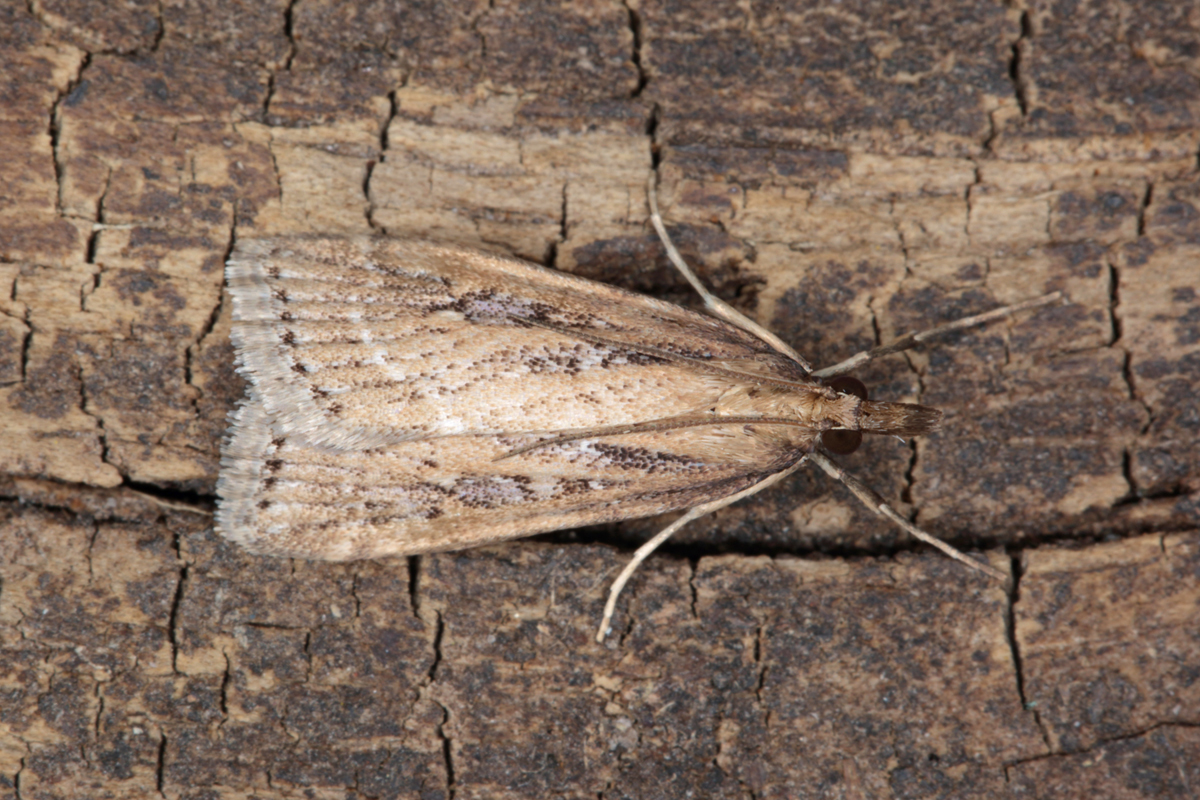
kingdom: Animalia
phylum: Arthropoda
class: Insecta
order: Lepidoptera
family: Crambidae
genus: Eudonia
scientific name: Eudonia octophora
